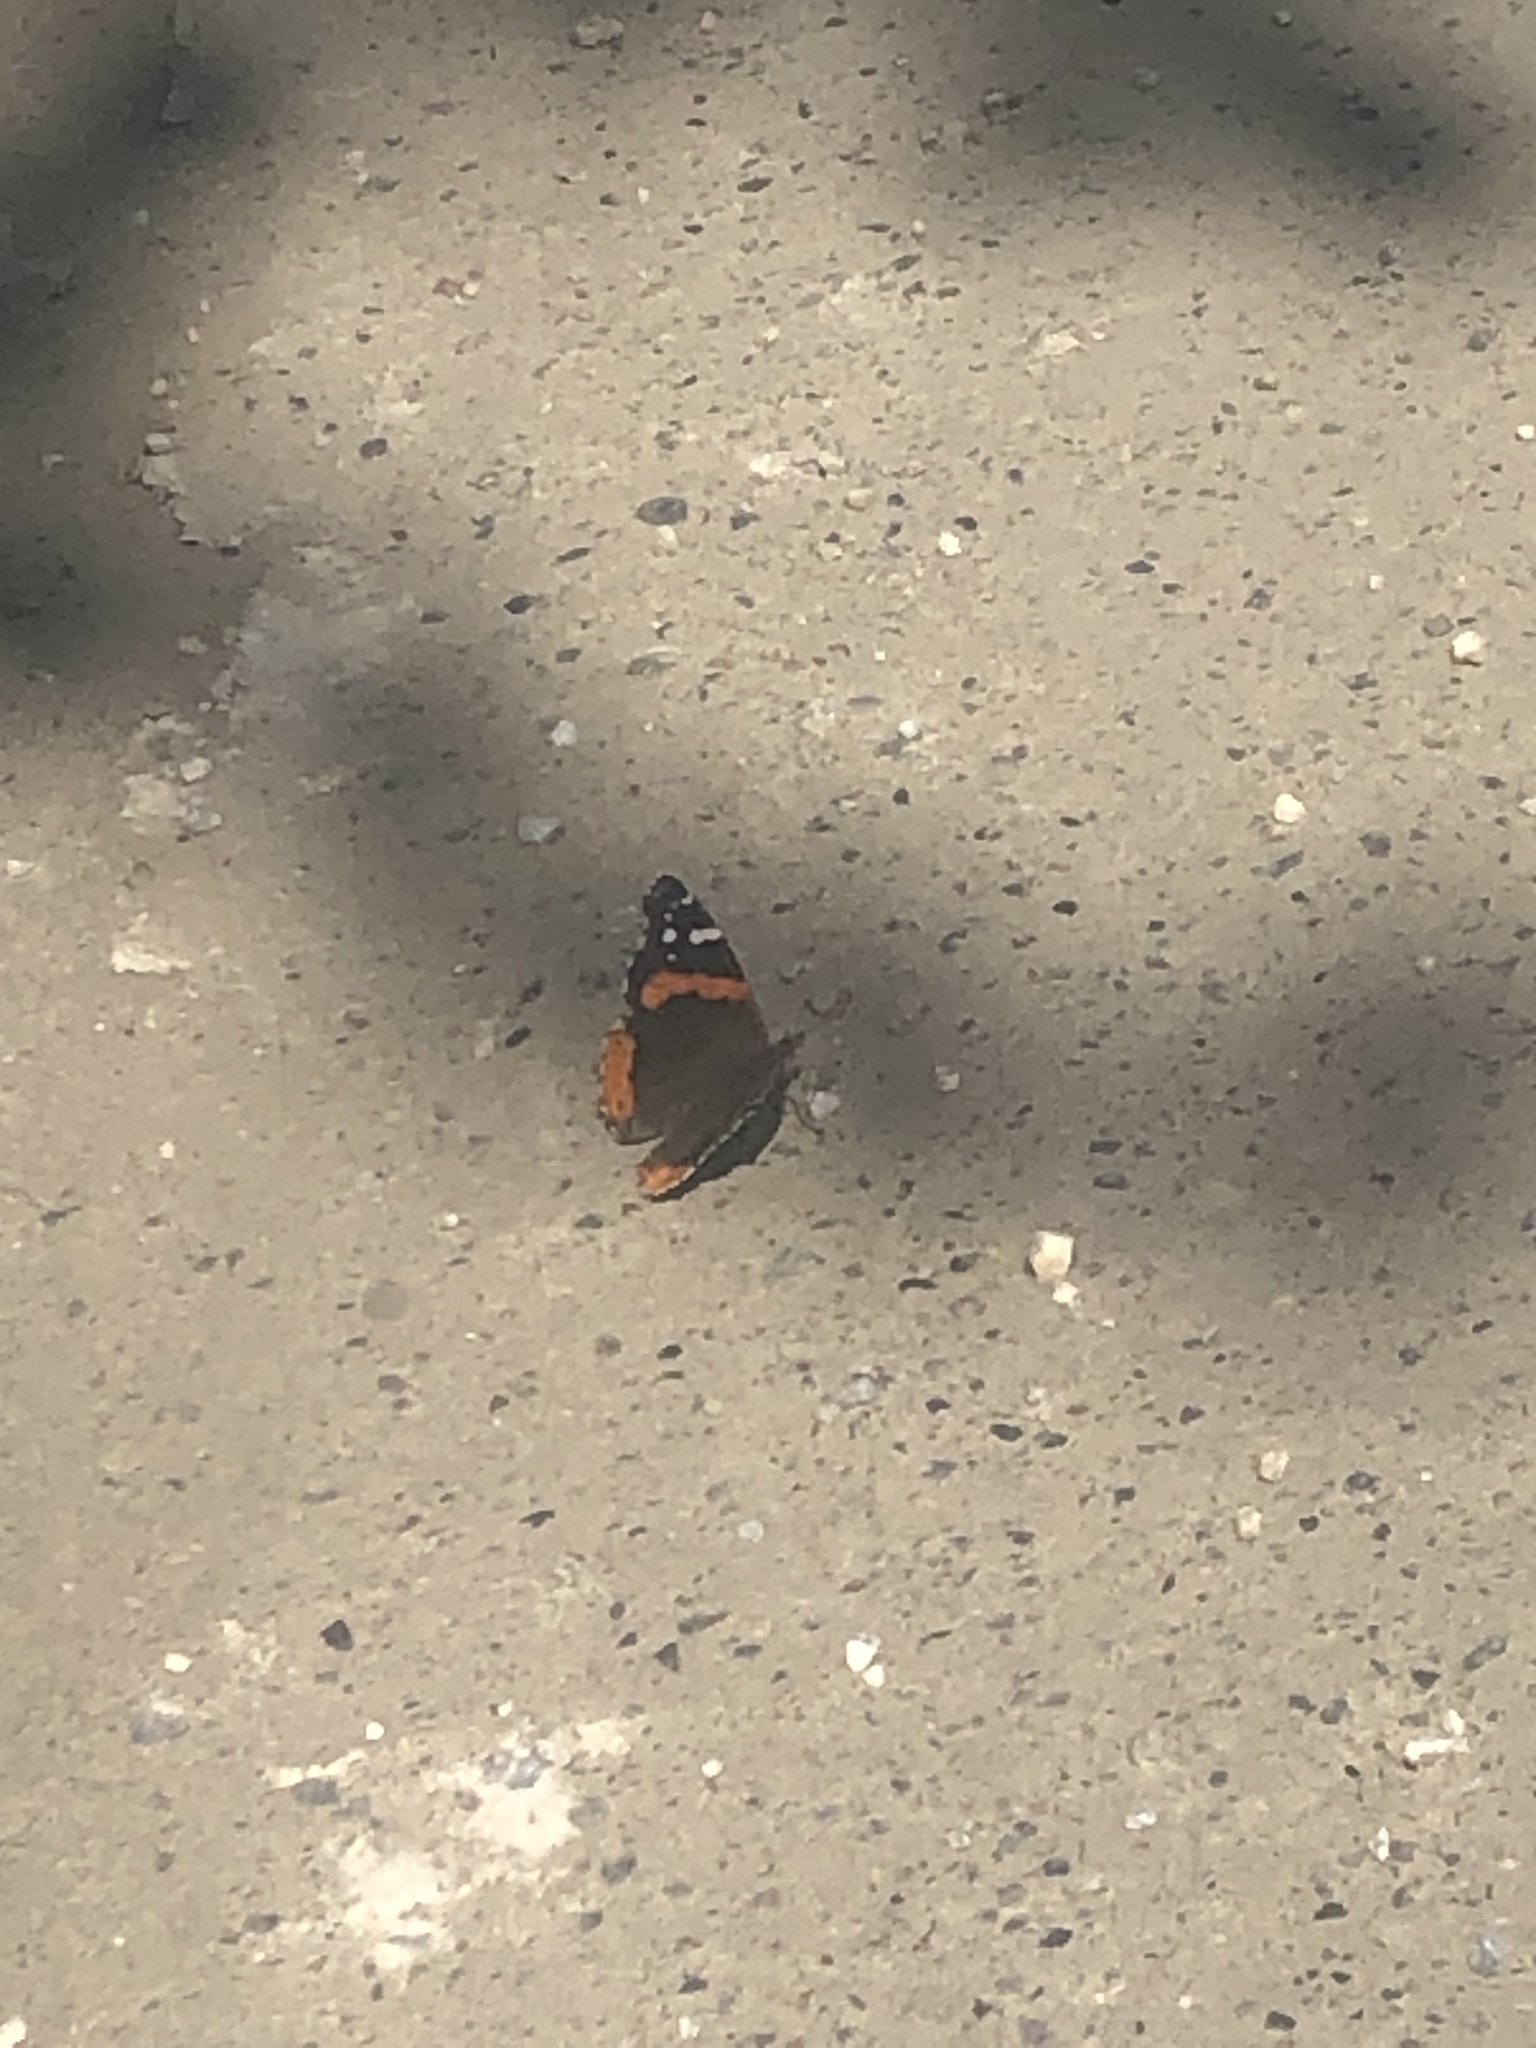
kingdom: Animalia
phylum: Arthropoda
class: Insecta
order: Lepidoptera
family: Nymphalidae
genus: Vanessa
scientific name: Vanessa atalanta
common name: Red admiral
